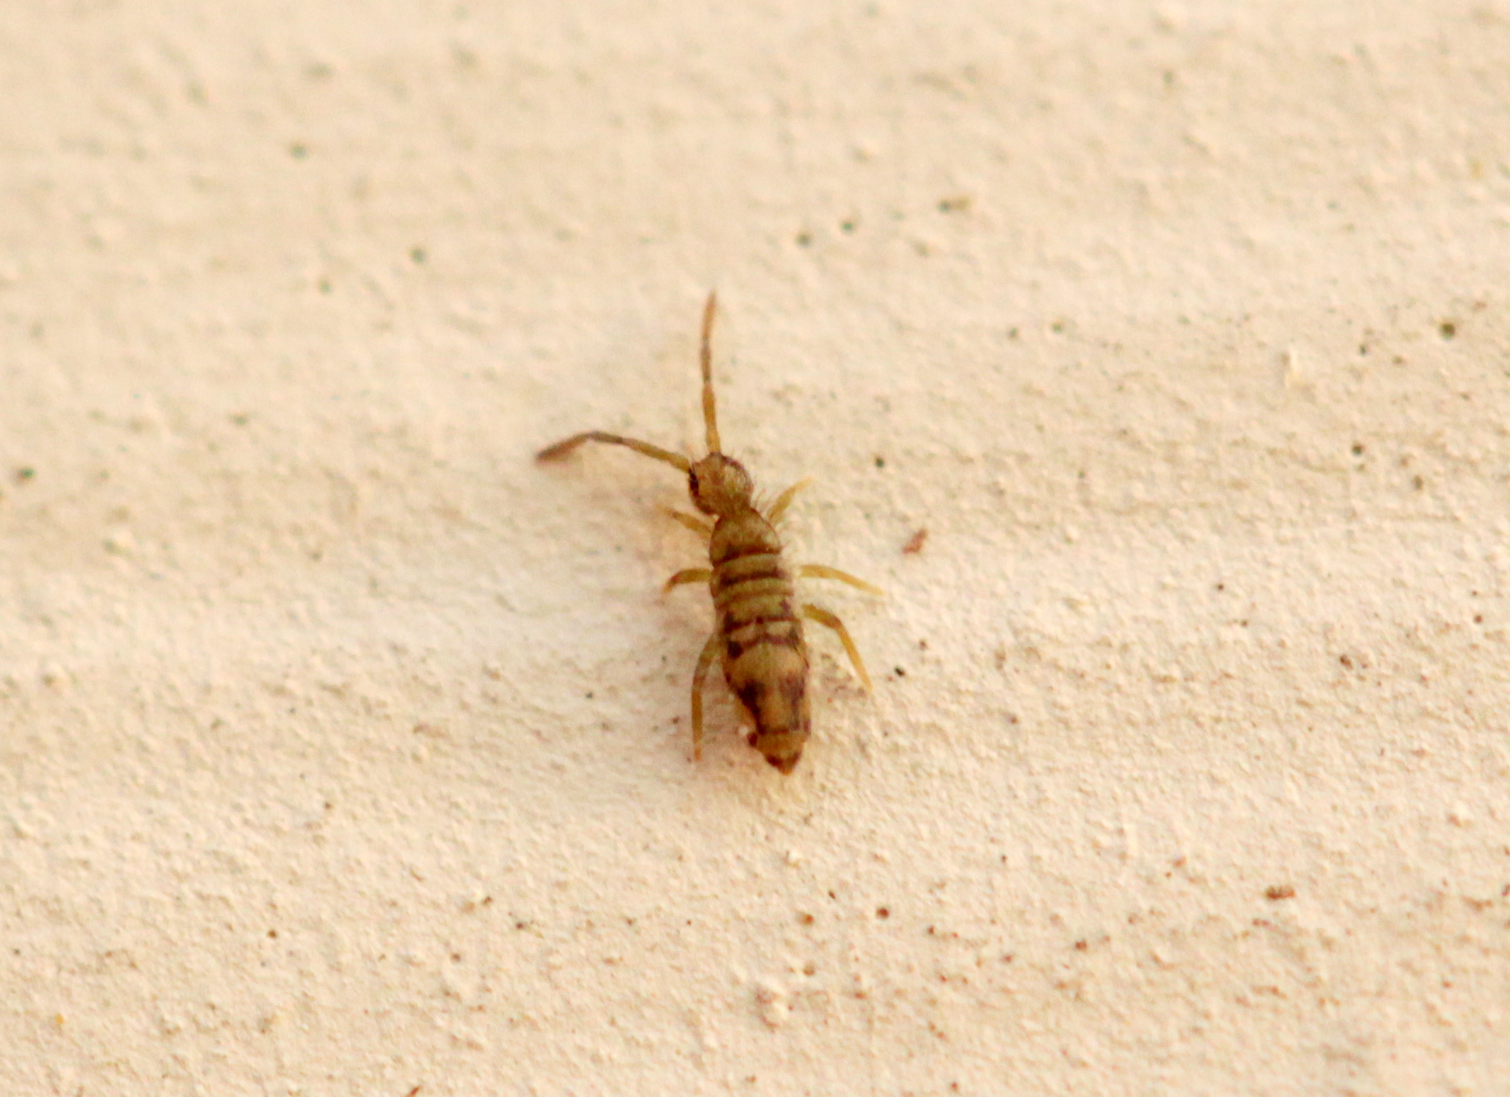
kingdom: Animalia
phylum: Arthropoda
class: Collembola
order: Entomobryomorpha
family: Entomobryidae
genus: Entomobrya
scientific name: Entomobrya nivalis
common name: Cosmopolitan springtail
